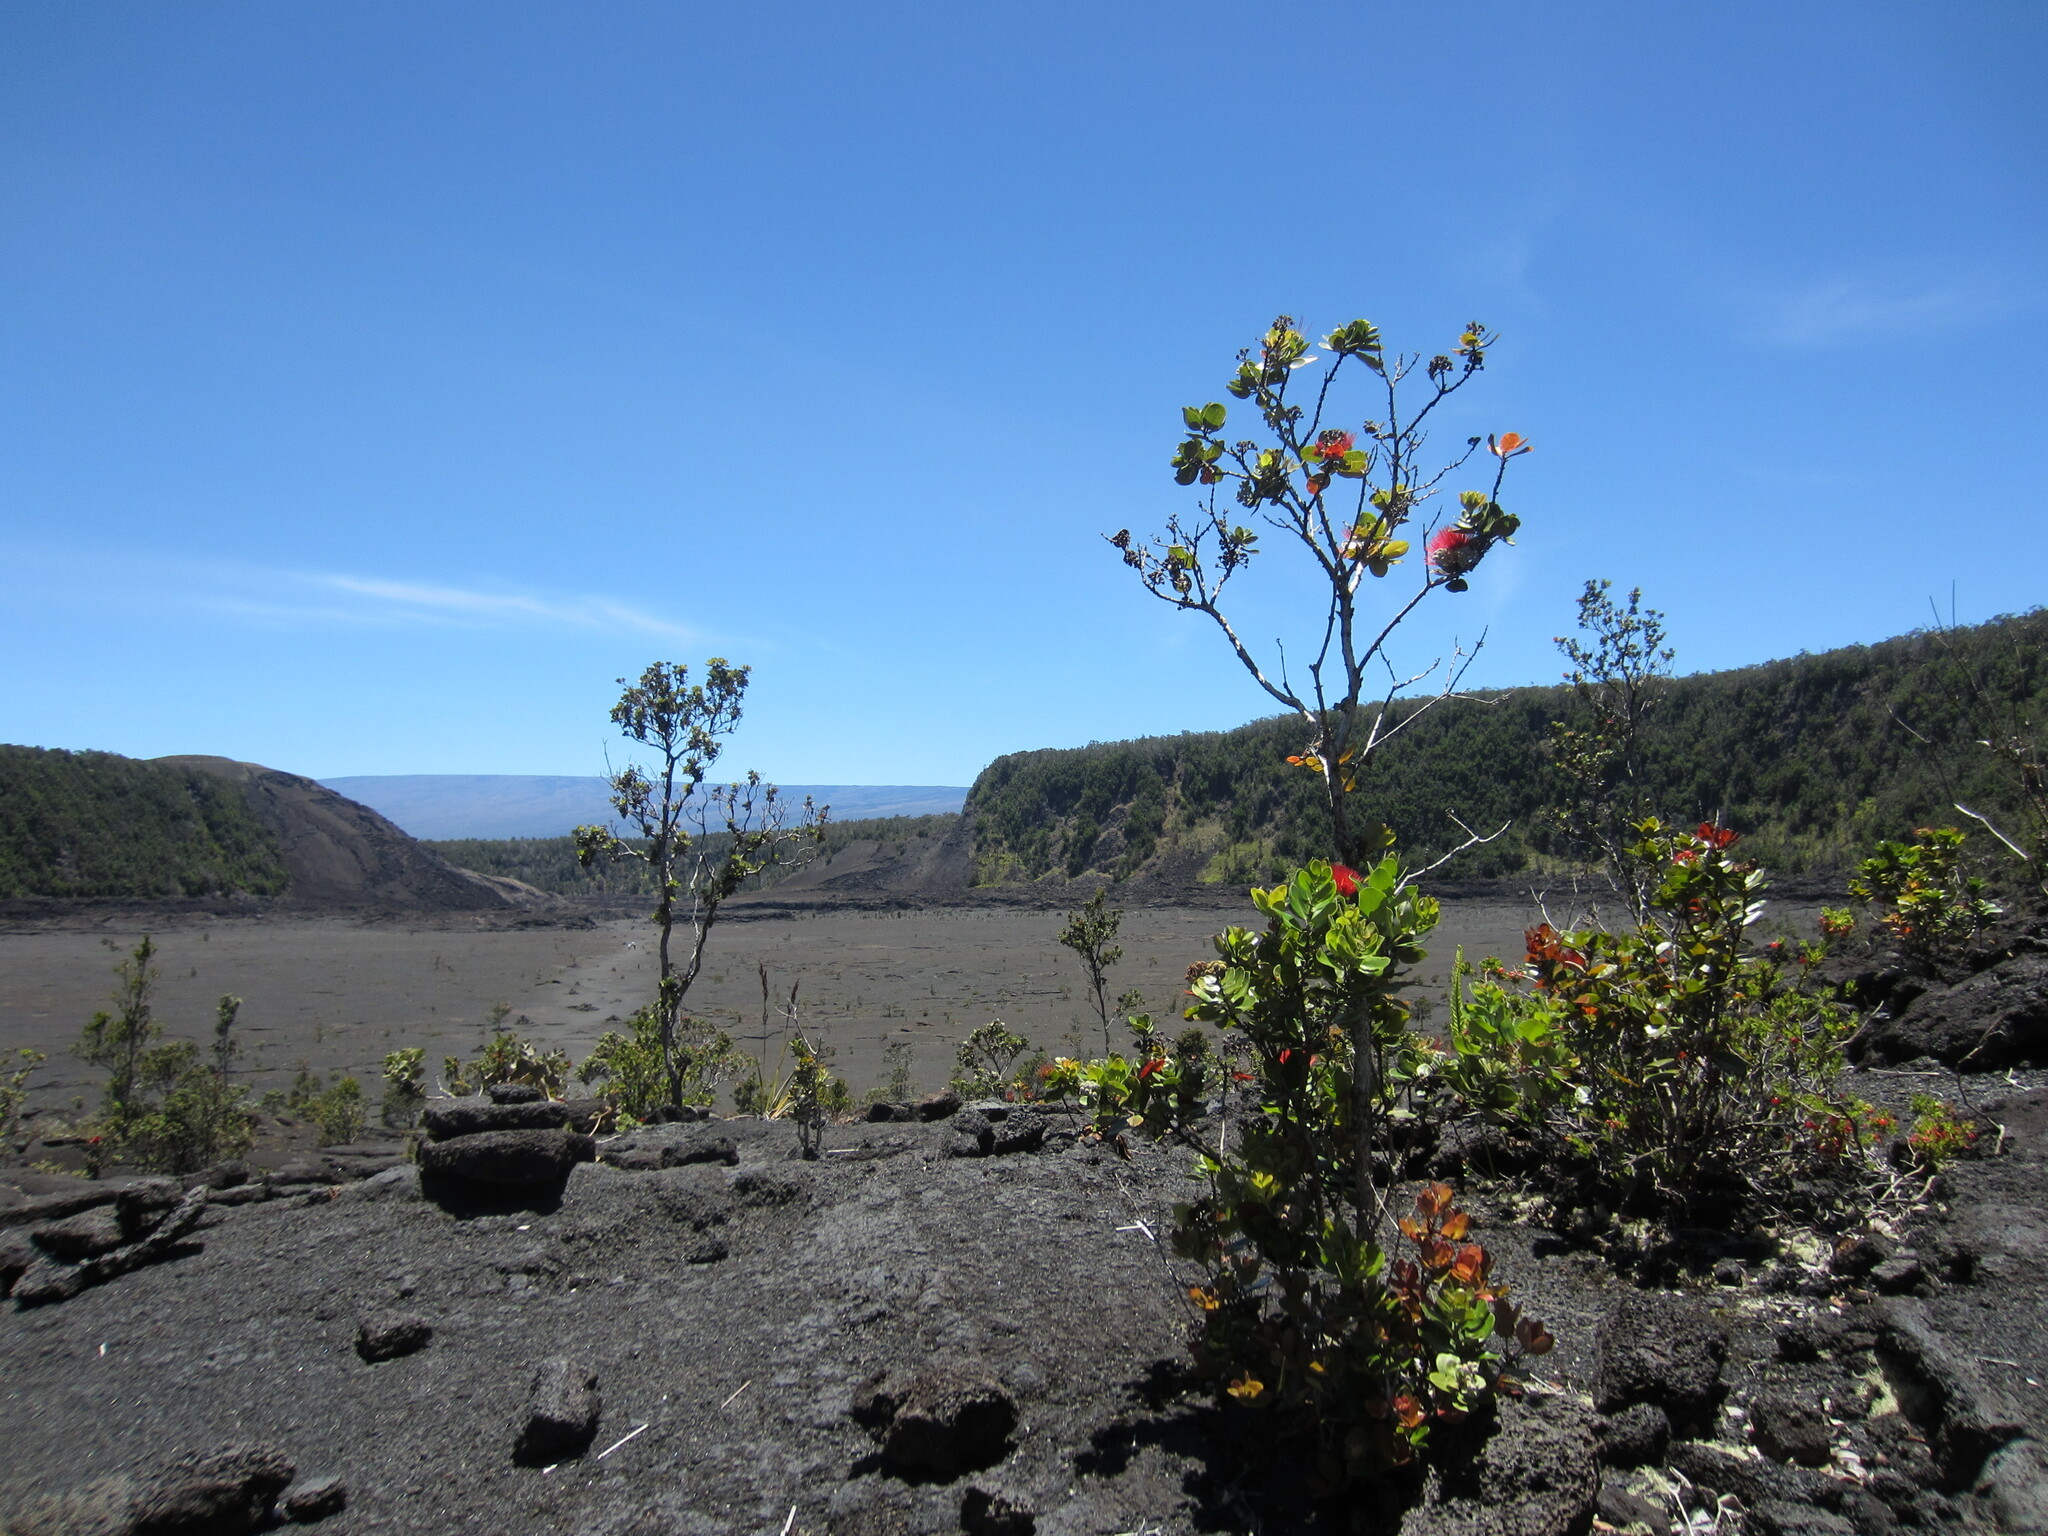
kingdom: Plantae
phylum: Tracheophyta
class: Magnoliopsida
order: Myrtales
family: Myrtaceae
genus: Metrosideros
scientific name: Metrosideros polymorpha
